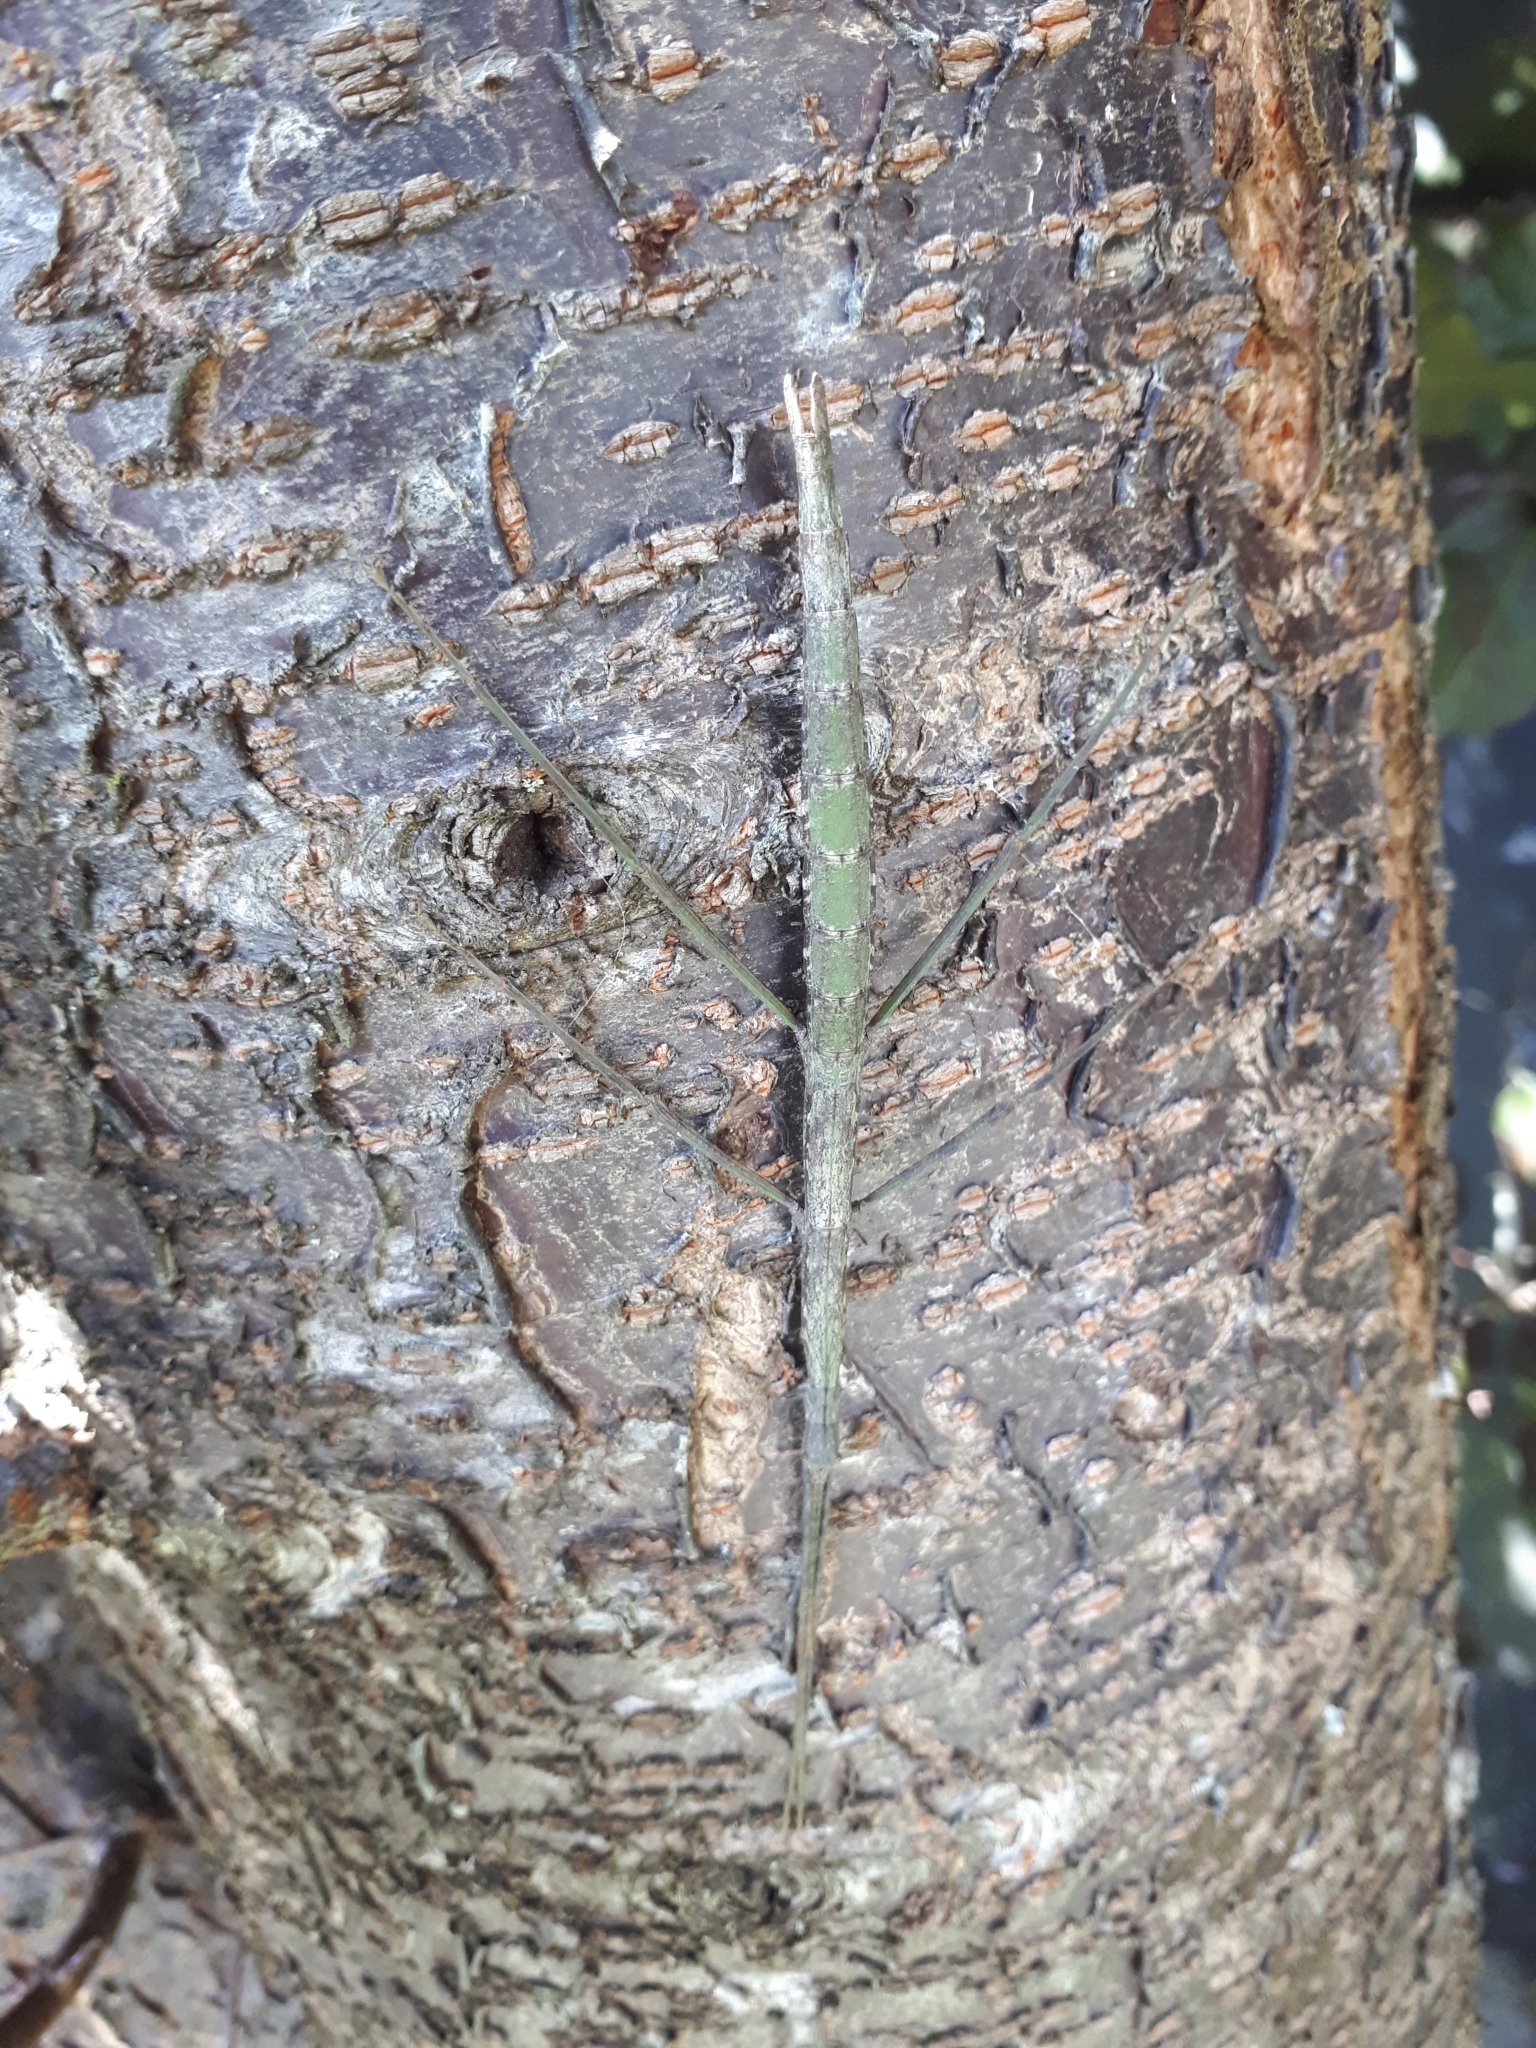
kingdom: Animalia
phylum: Arthropoda
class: Insecta
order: Phasmida
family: Phasmatidae
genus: Clitarchus
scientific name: Clitarchus hookeri
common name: Smooth stick insect
